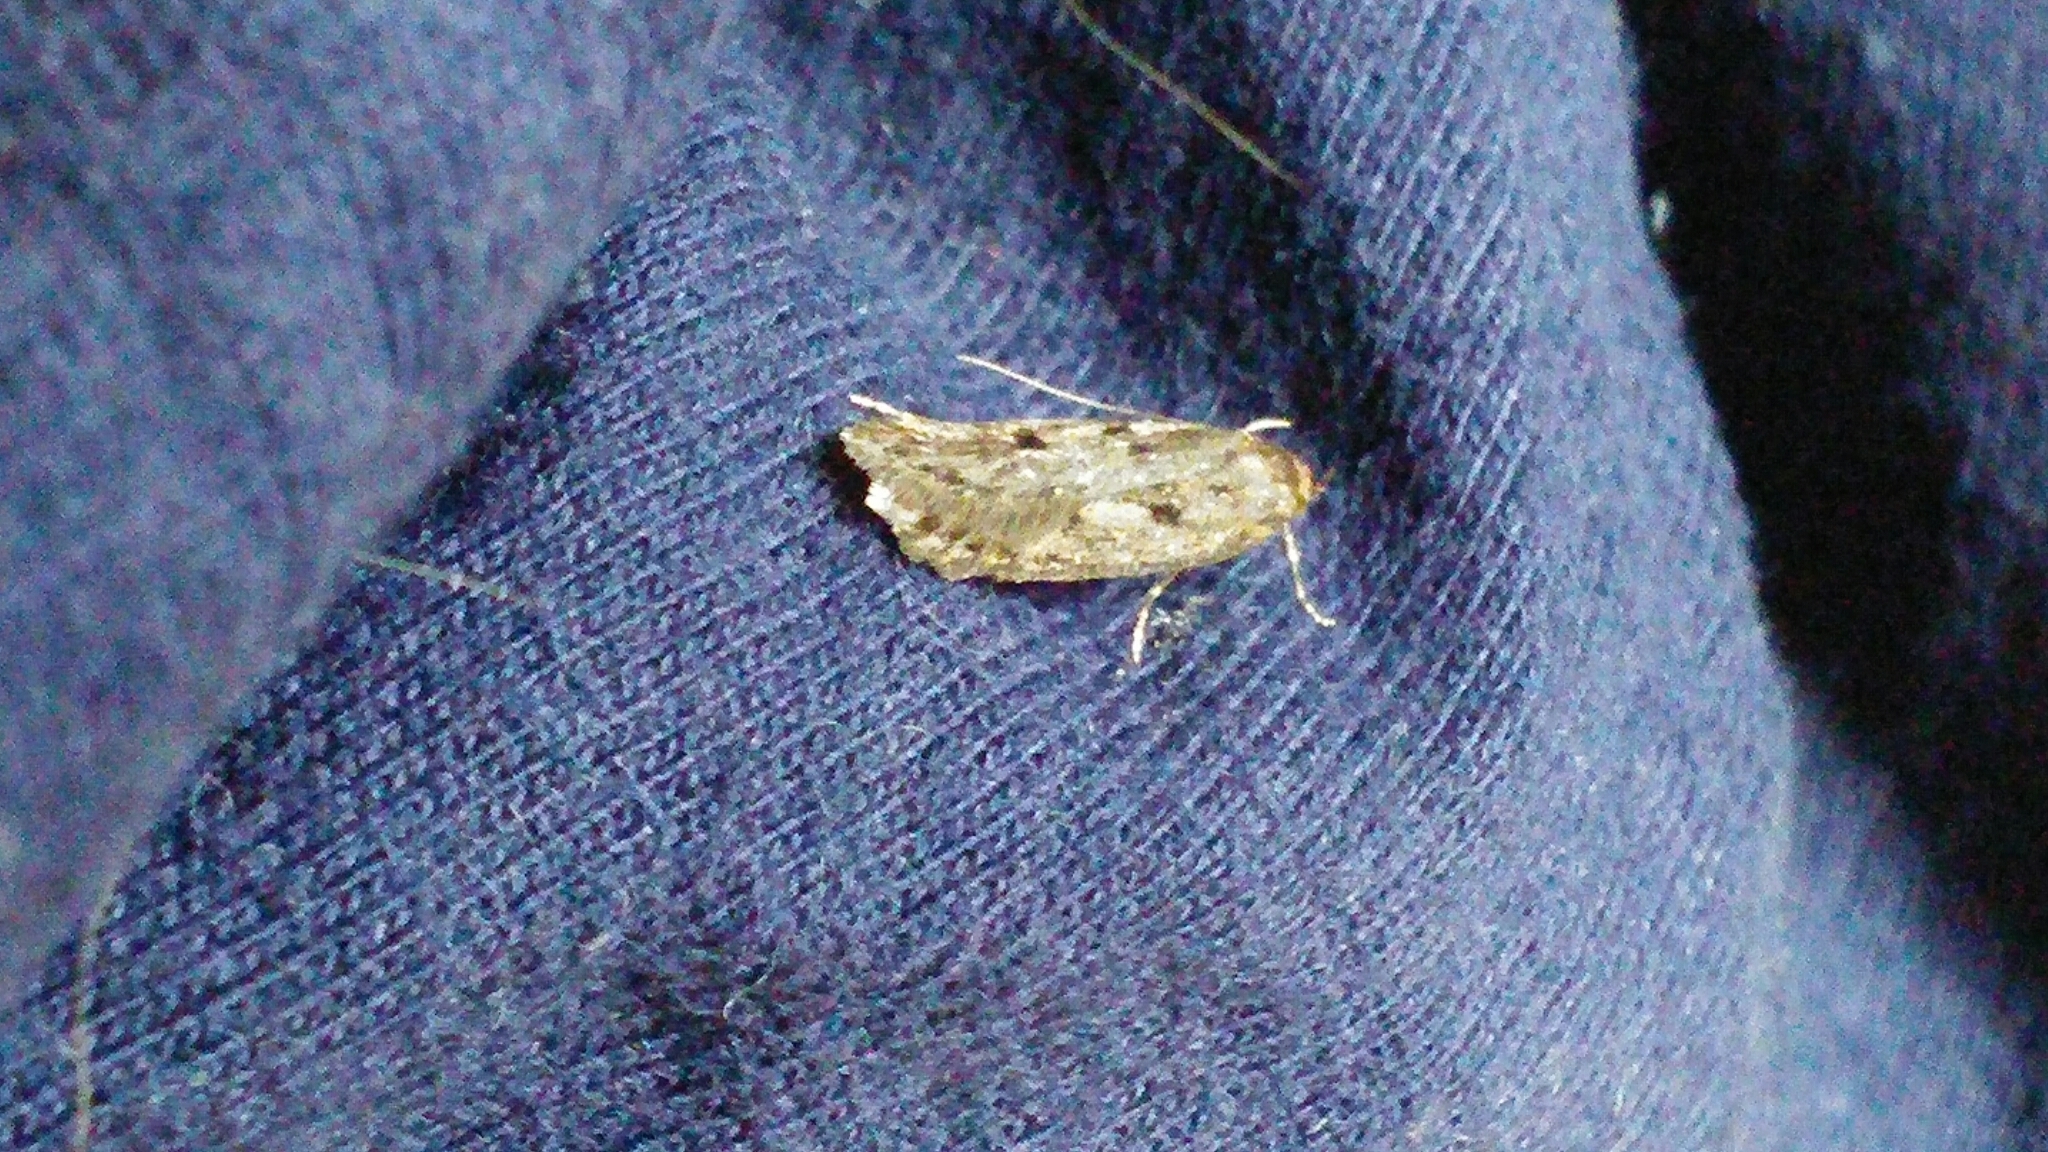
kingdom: Animalia
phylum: Arthropoda
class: Insecta
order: Lepidoptera
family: Oecophoridae
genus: Hofmannophila
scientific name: Hofmannophila pseudospretella
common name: Brown house moth
